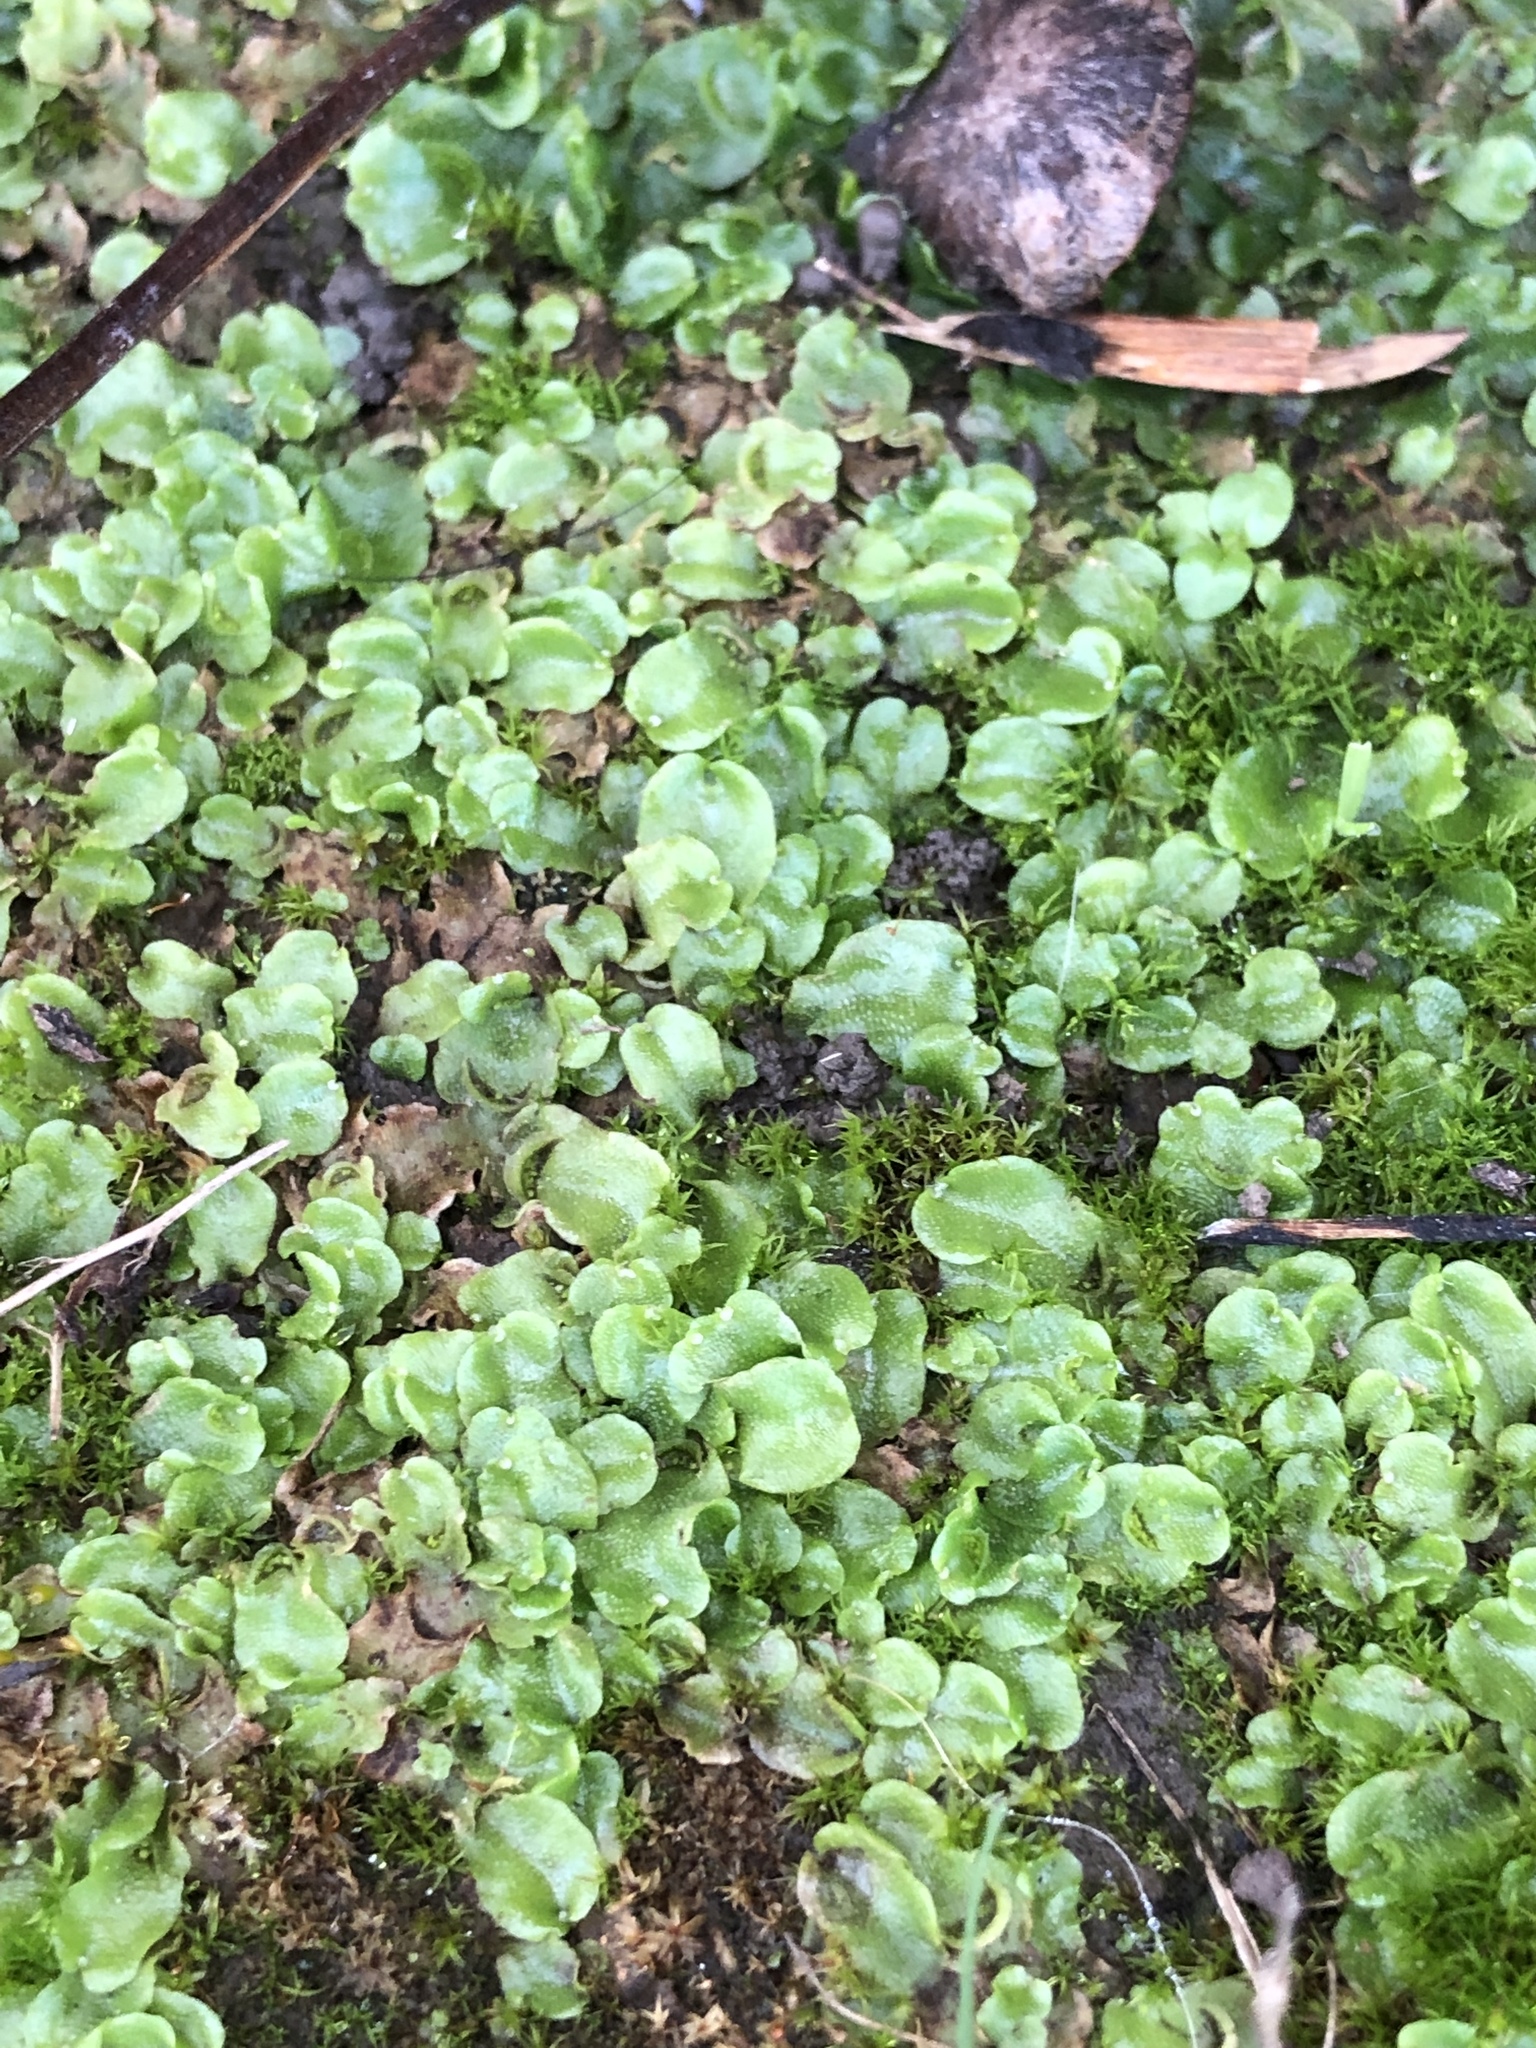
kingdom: Plantae
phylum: Marchantiophyta
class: Marchantiopsida
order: Lunulariales
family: Lunulariaceae
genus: Lunularia
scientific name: Lunularia cruciata
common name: Crescent-cup liverwort
